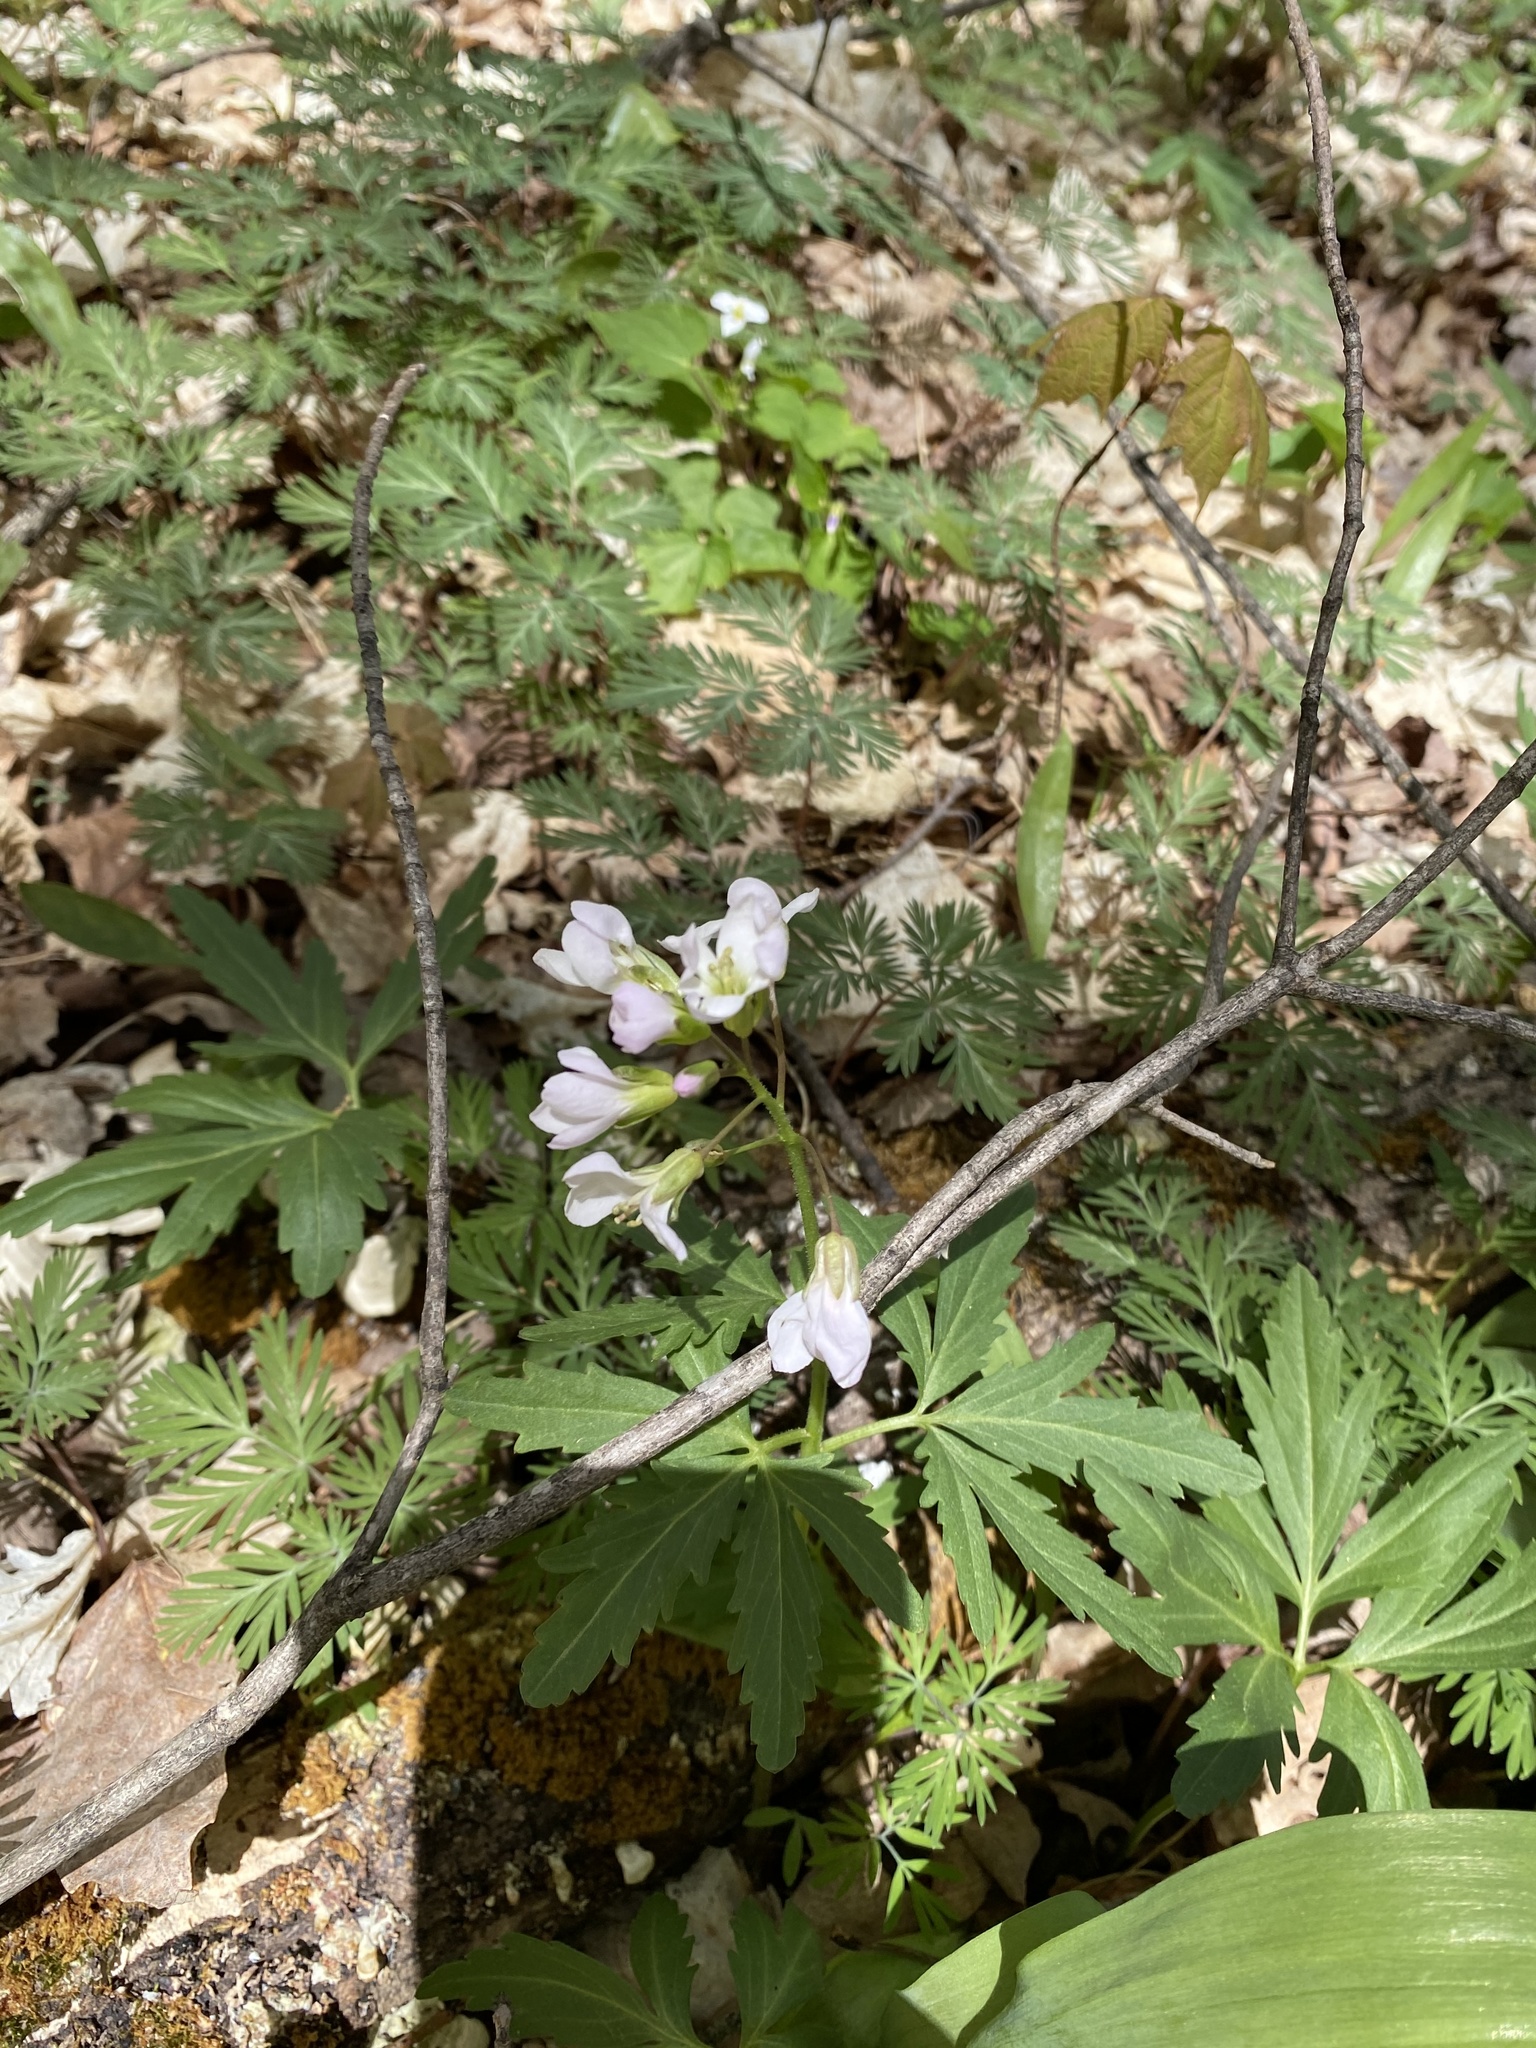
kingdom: Plantae
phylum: Tracheophyta
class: Magnoliopsida
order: Brassicales
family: Brassicaceae
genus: Cardamine
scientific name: Cardamine concatenata
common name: Cut-leaf toothcup
